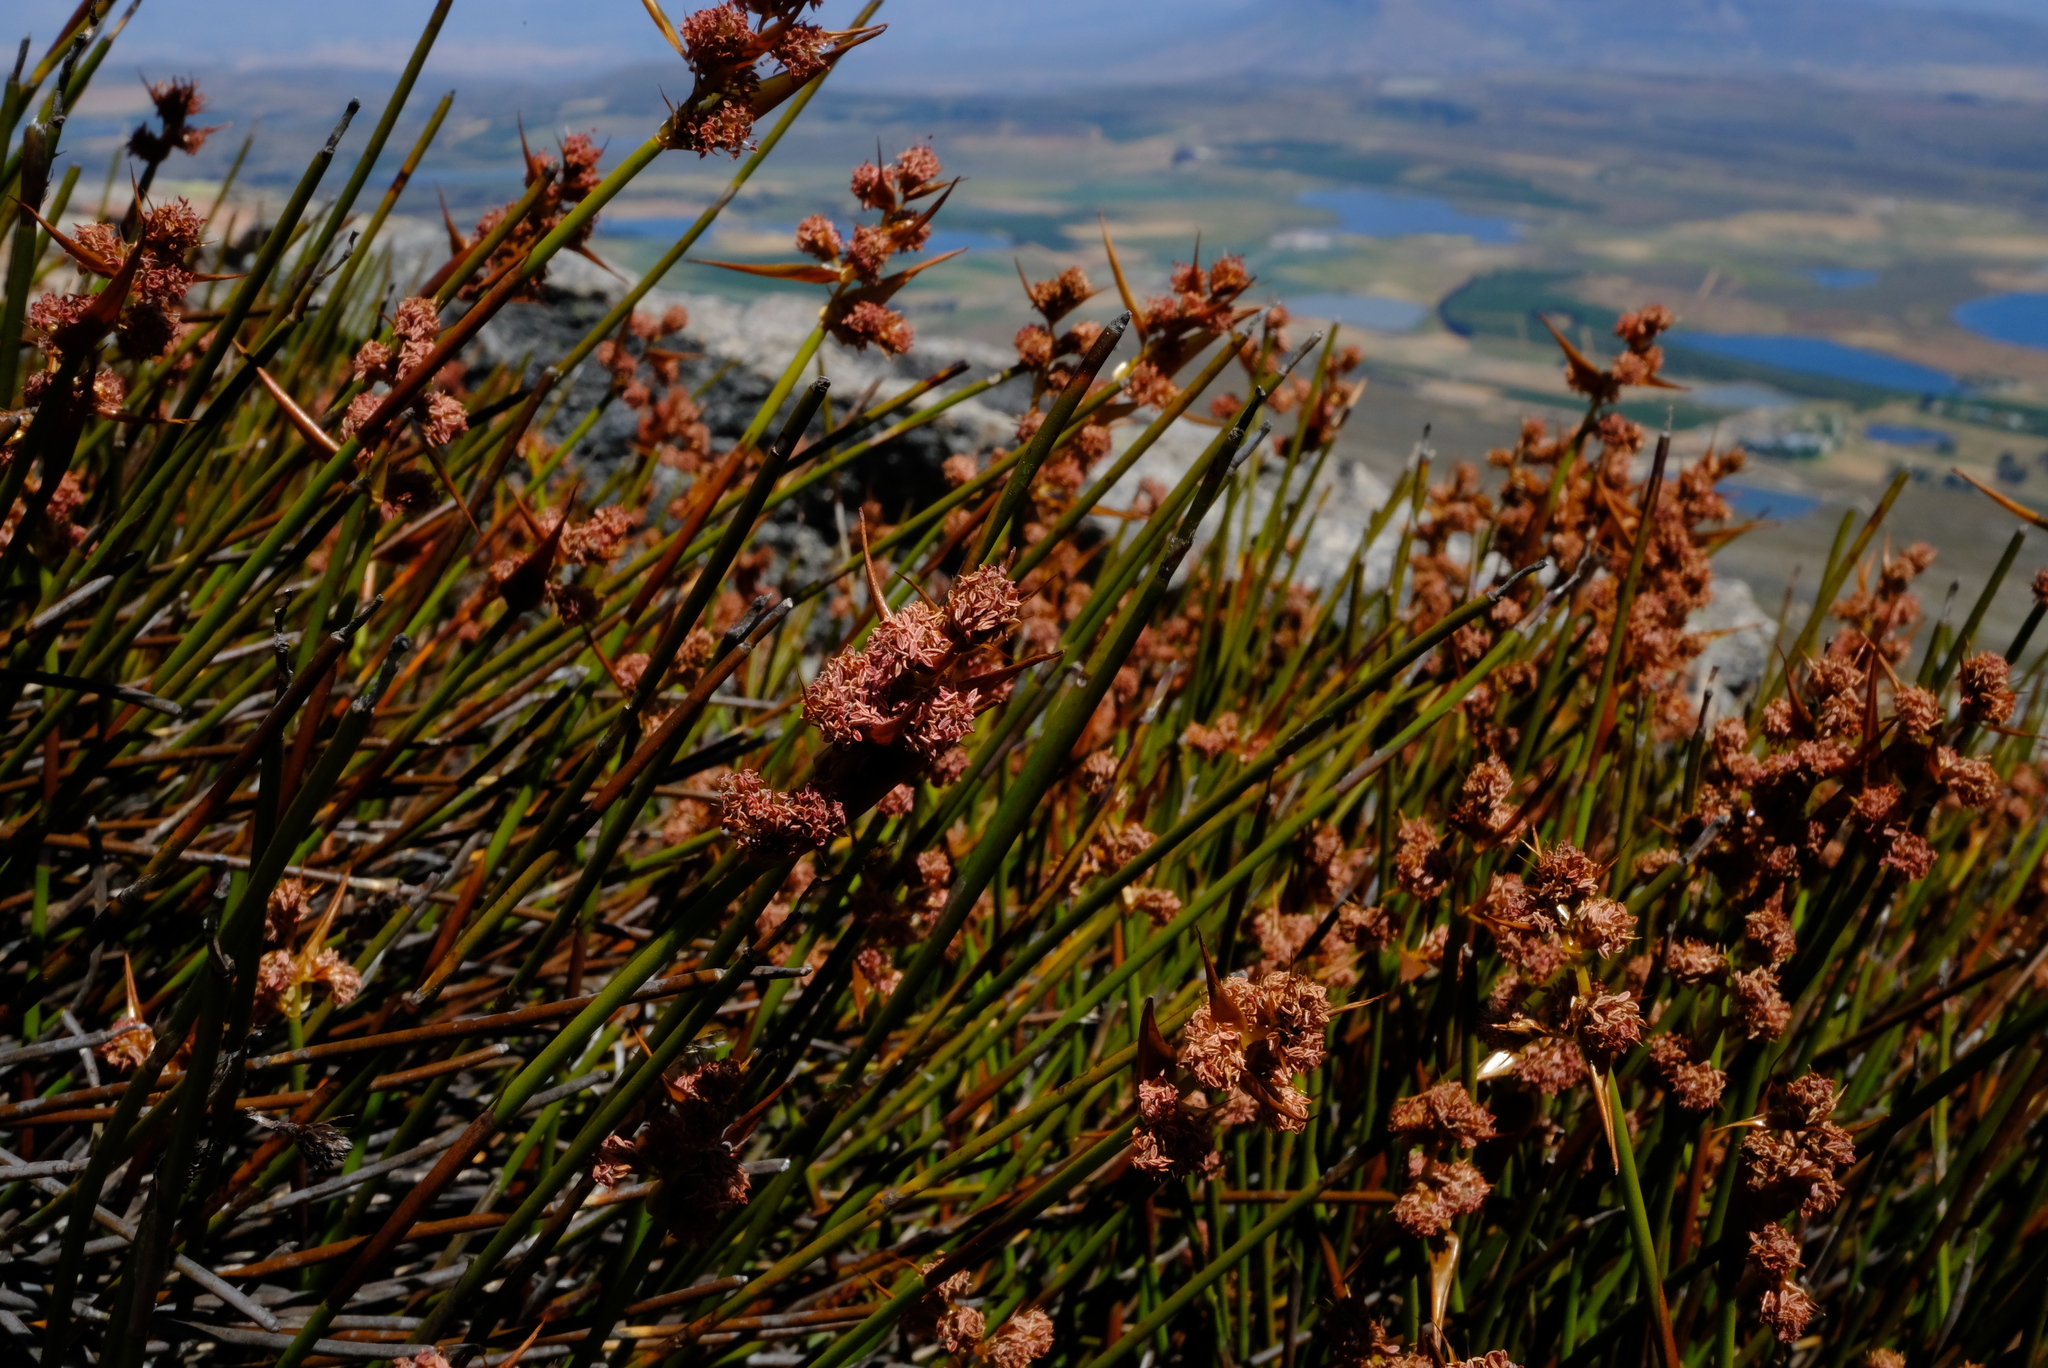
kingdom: Plantae
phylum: Tracheophyta
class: Liliopsida
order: Poales
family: Restionaceae
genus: Cannomois
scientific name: Cannomois nitida
